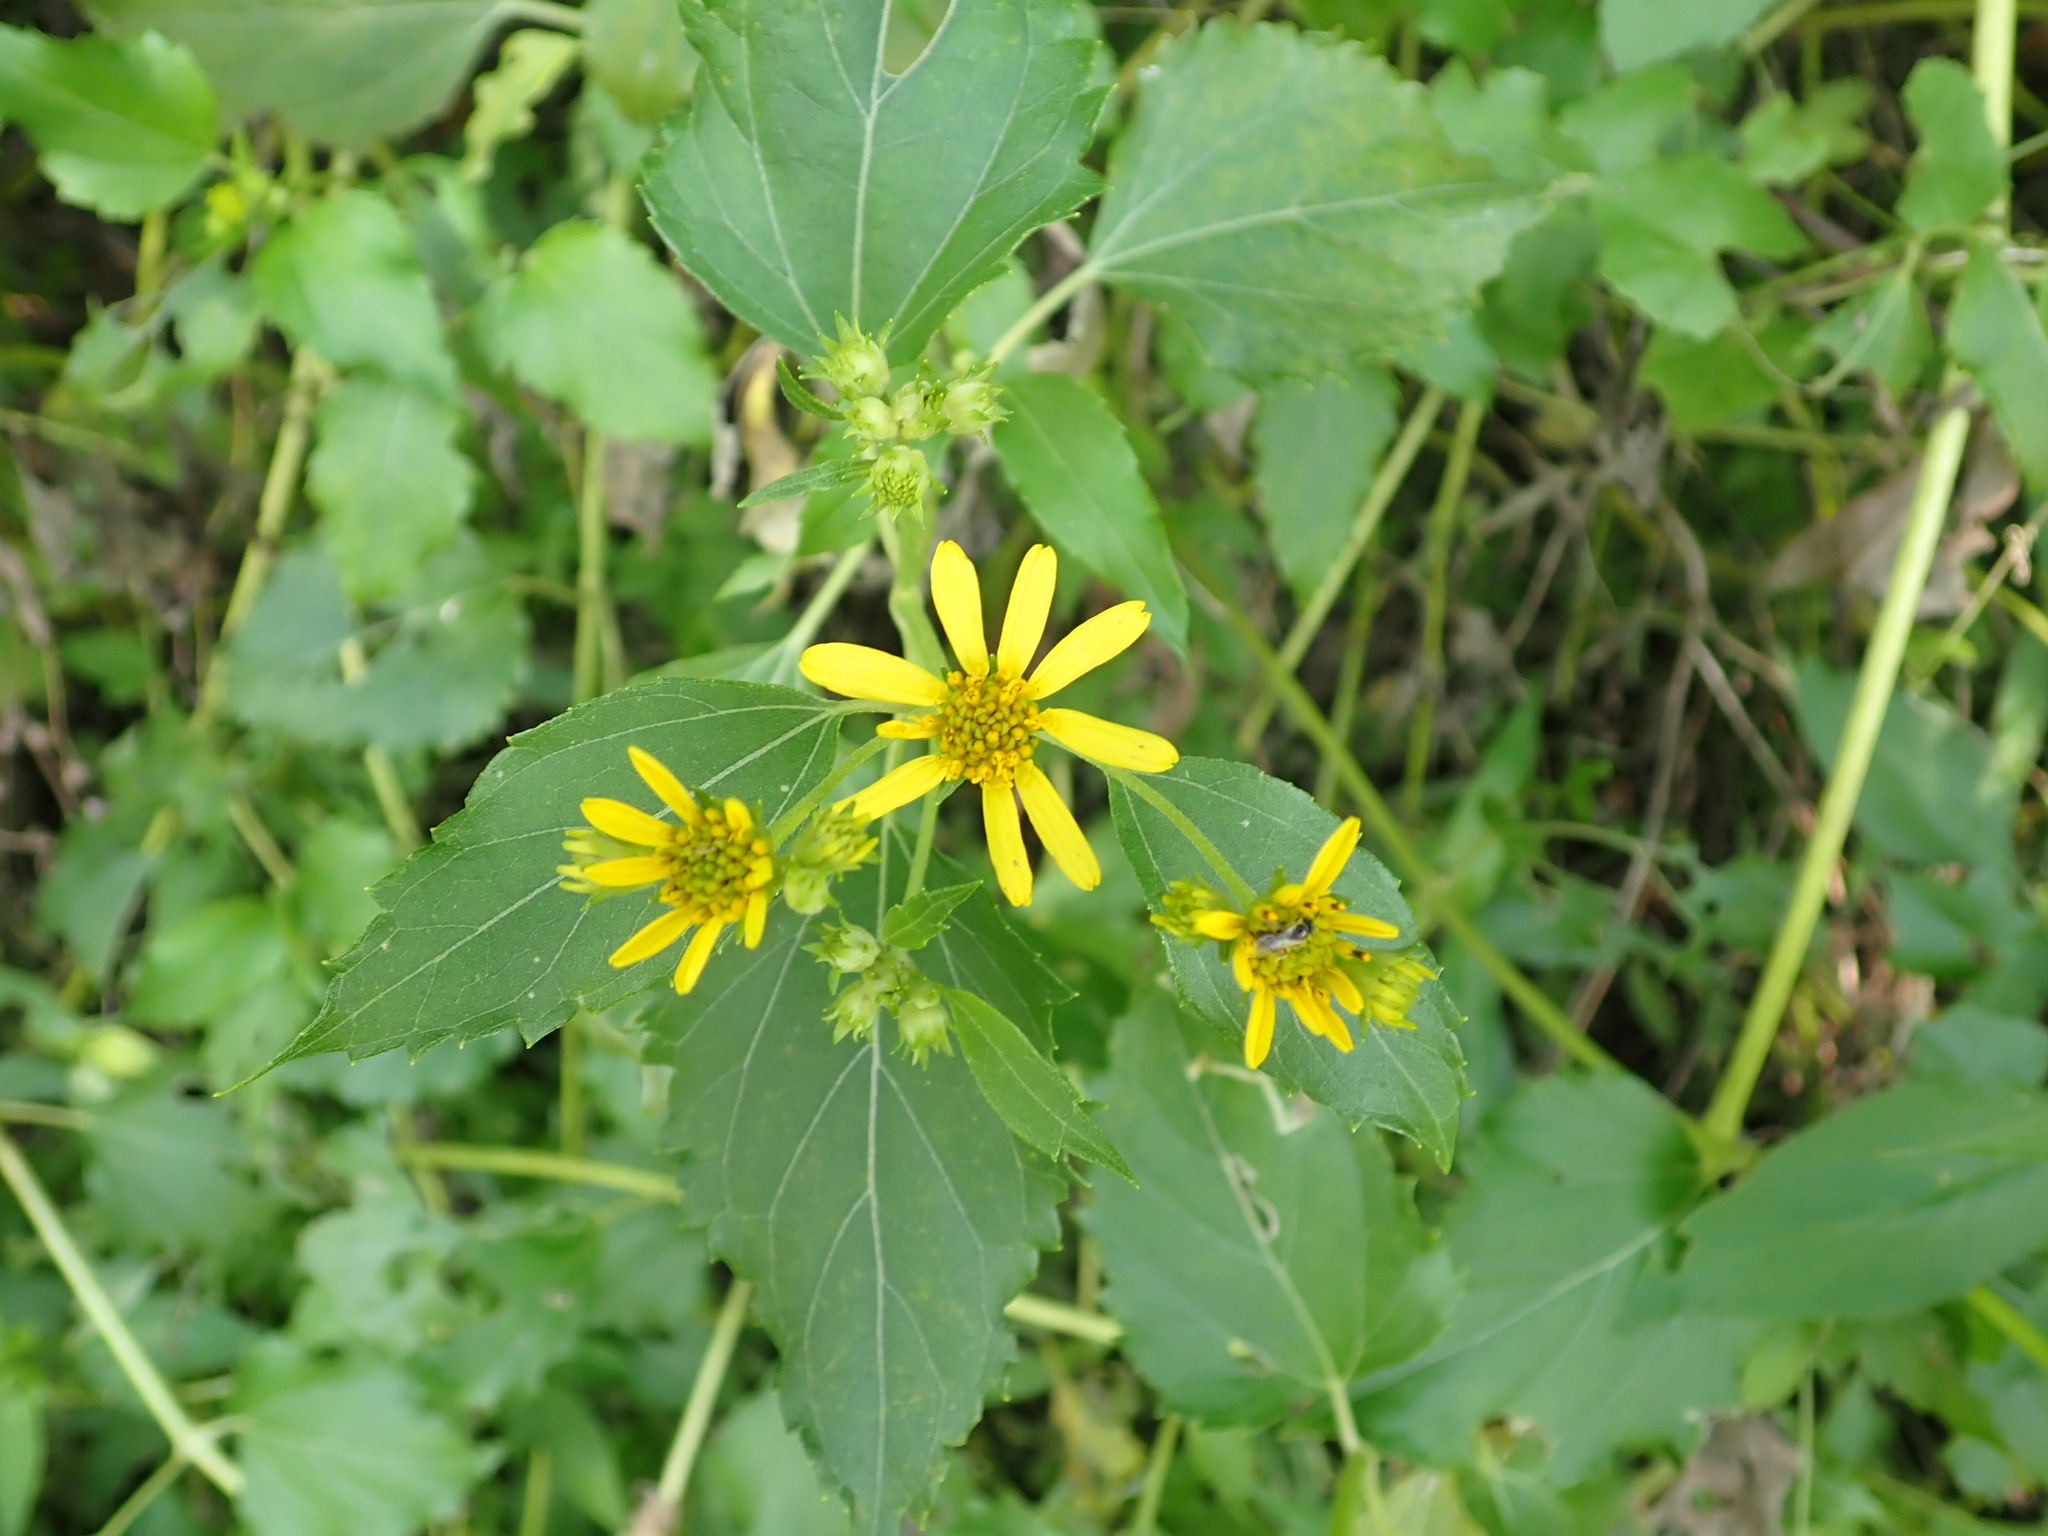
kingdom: Plantae
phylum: Tracheophyta
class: Magnoliopsida
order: Asterales
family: Asteraceae
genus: Wollastonia
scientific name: Wollastonia biflora
